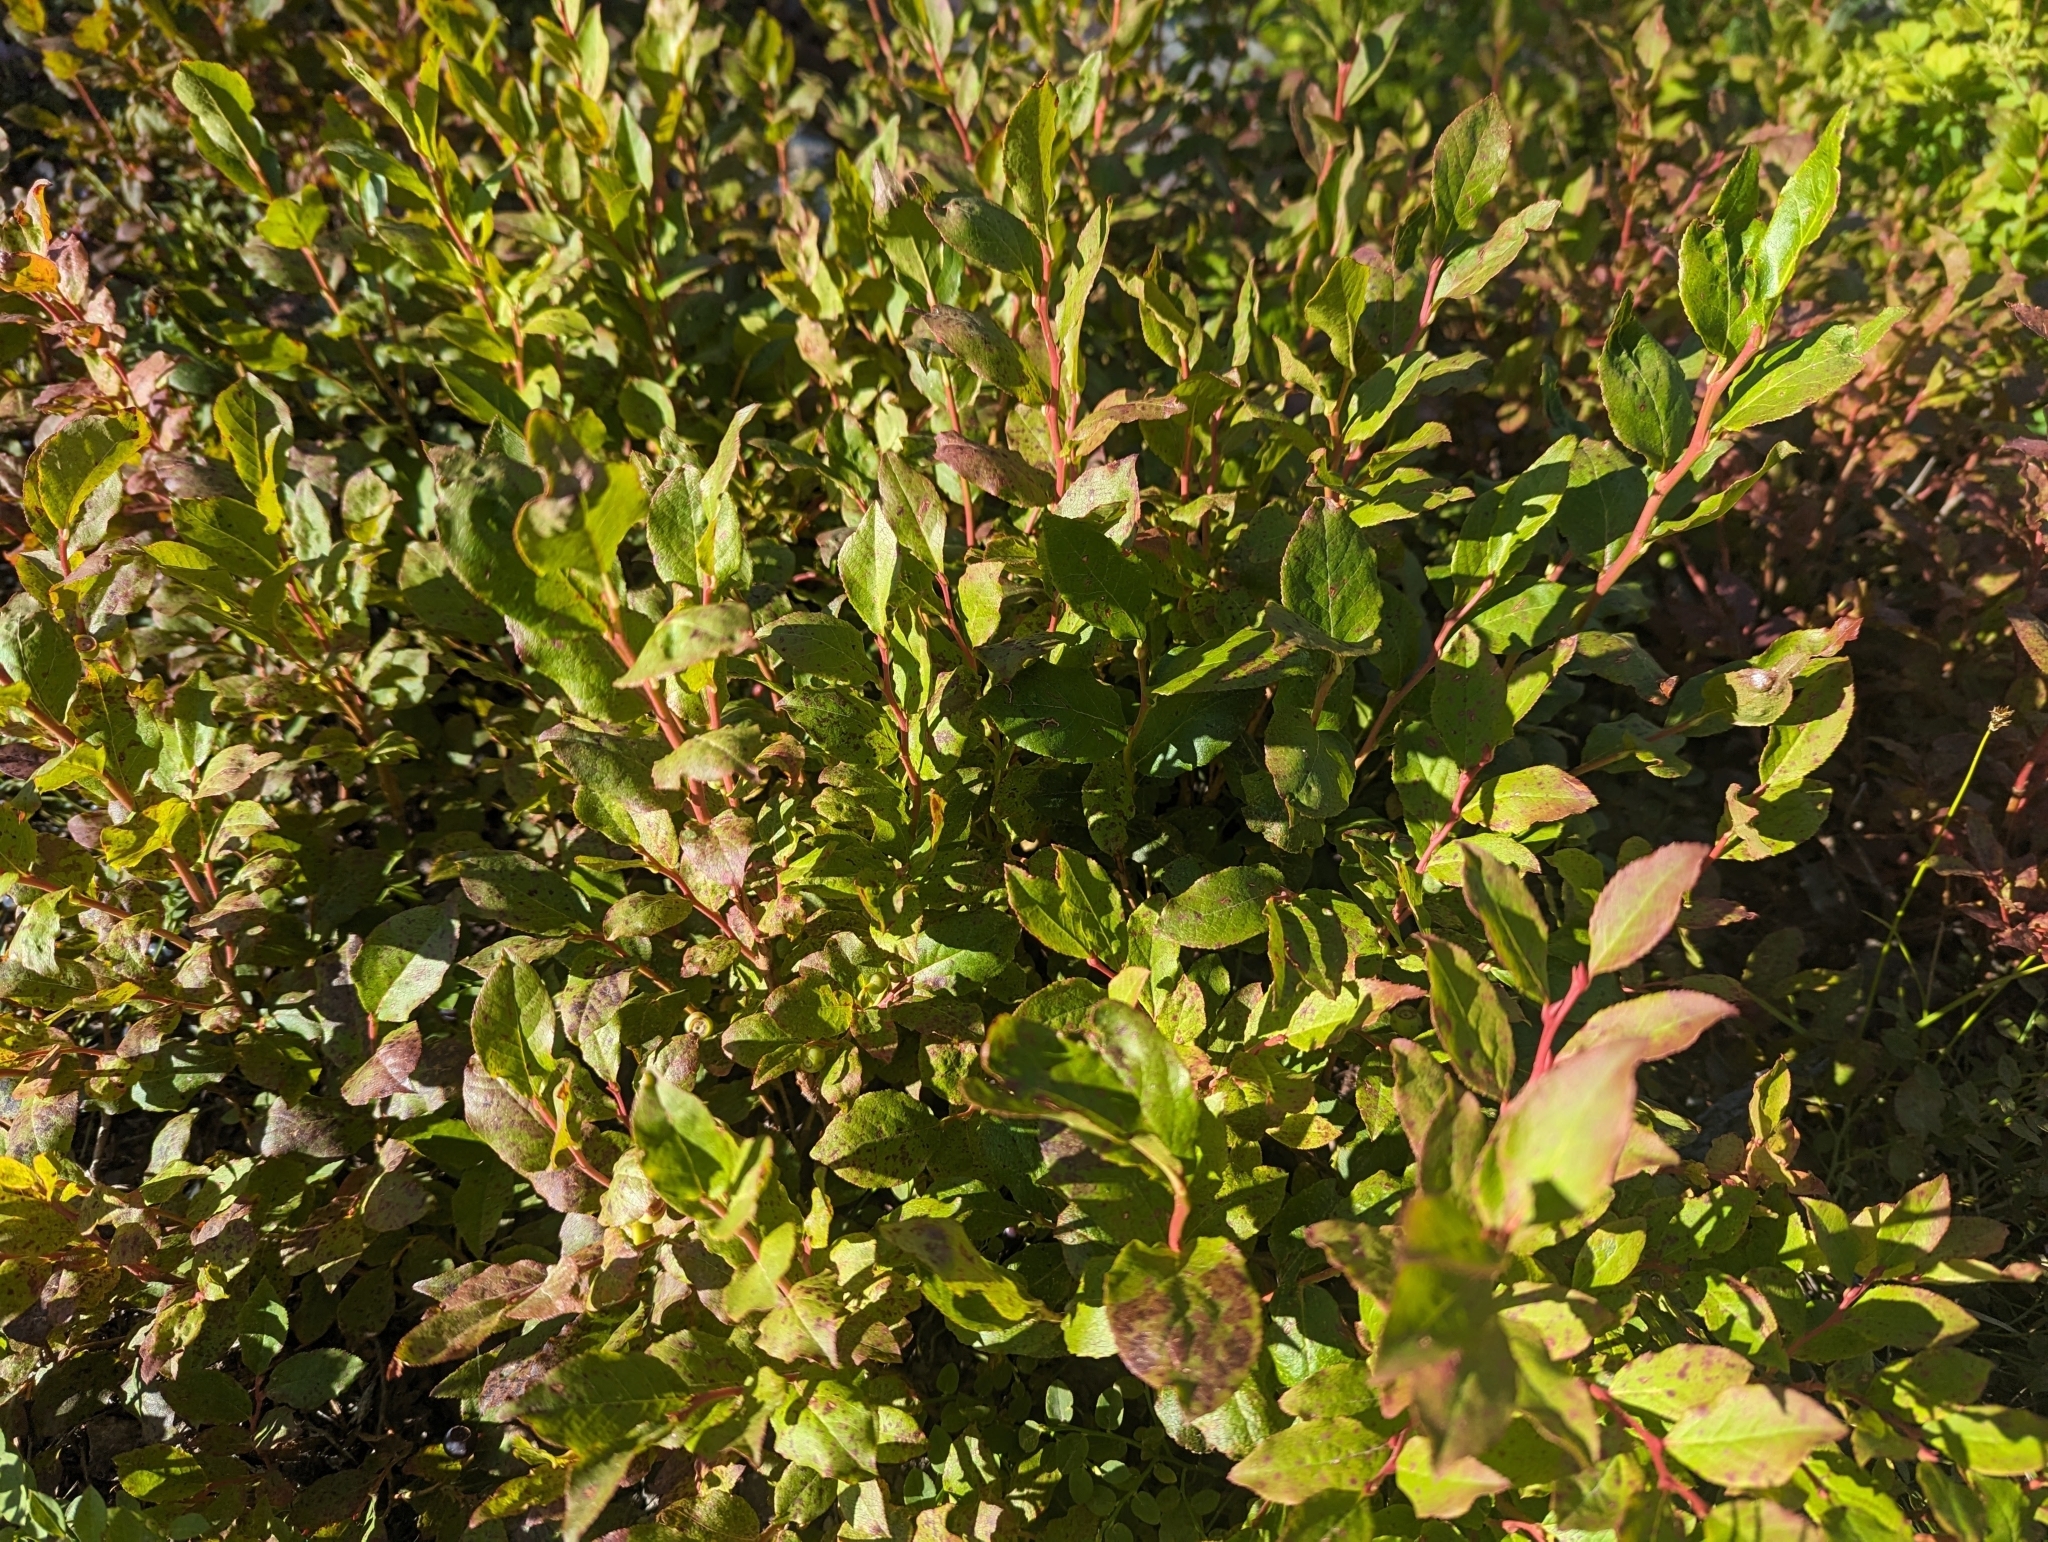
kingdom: Plantae
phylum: Tracheophyta
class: Magnoliopsida
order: Ericales
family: Ericaceae
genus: Vaccinium
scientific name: Vaccinium membranaceum
